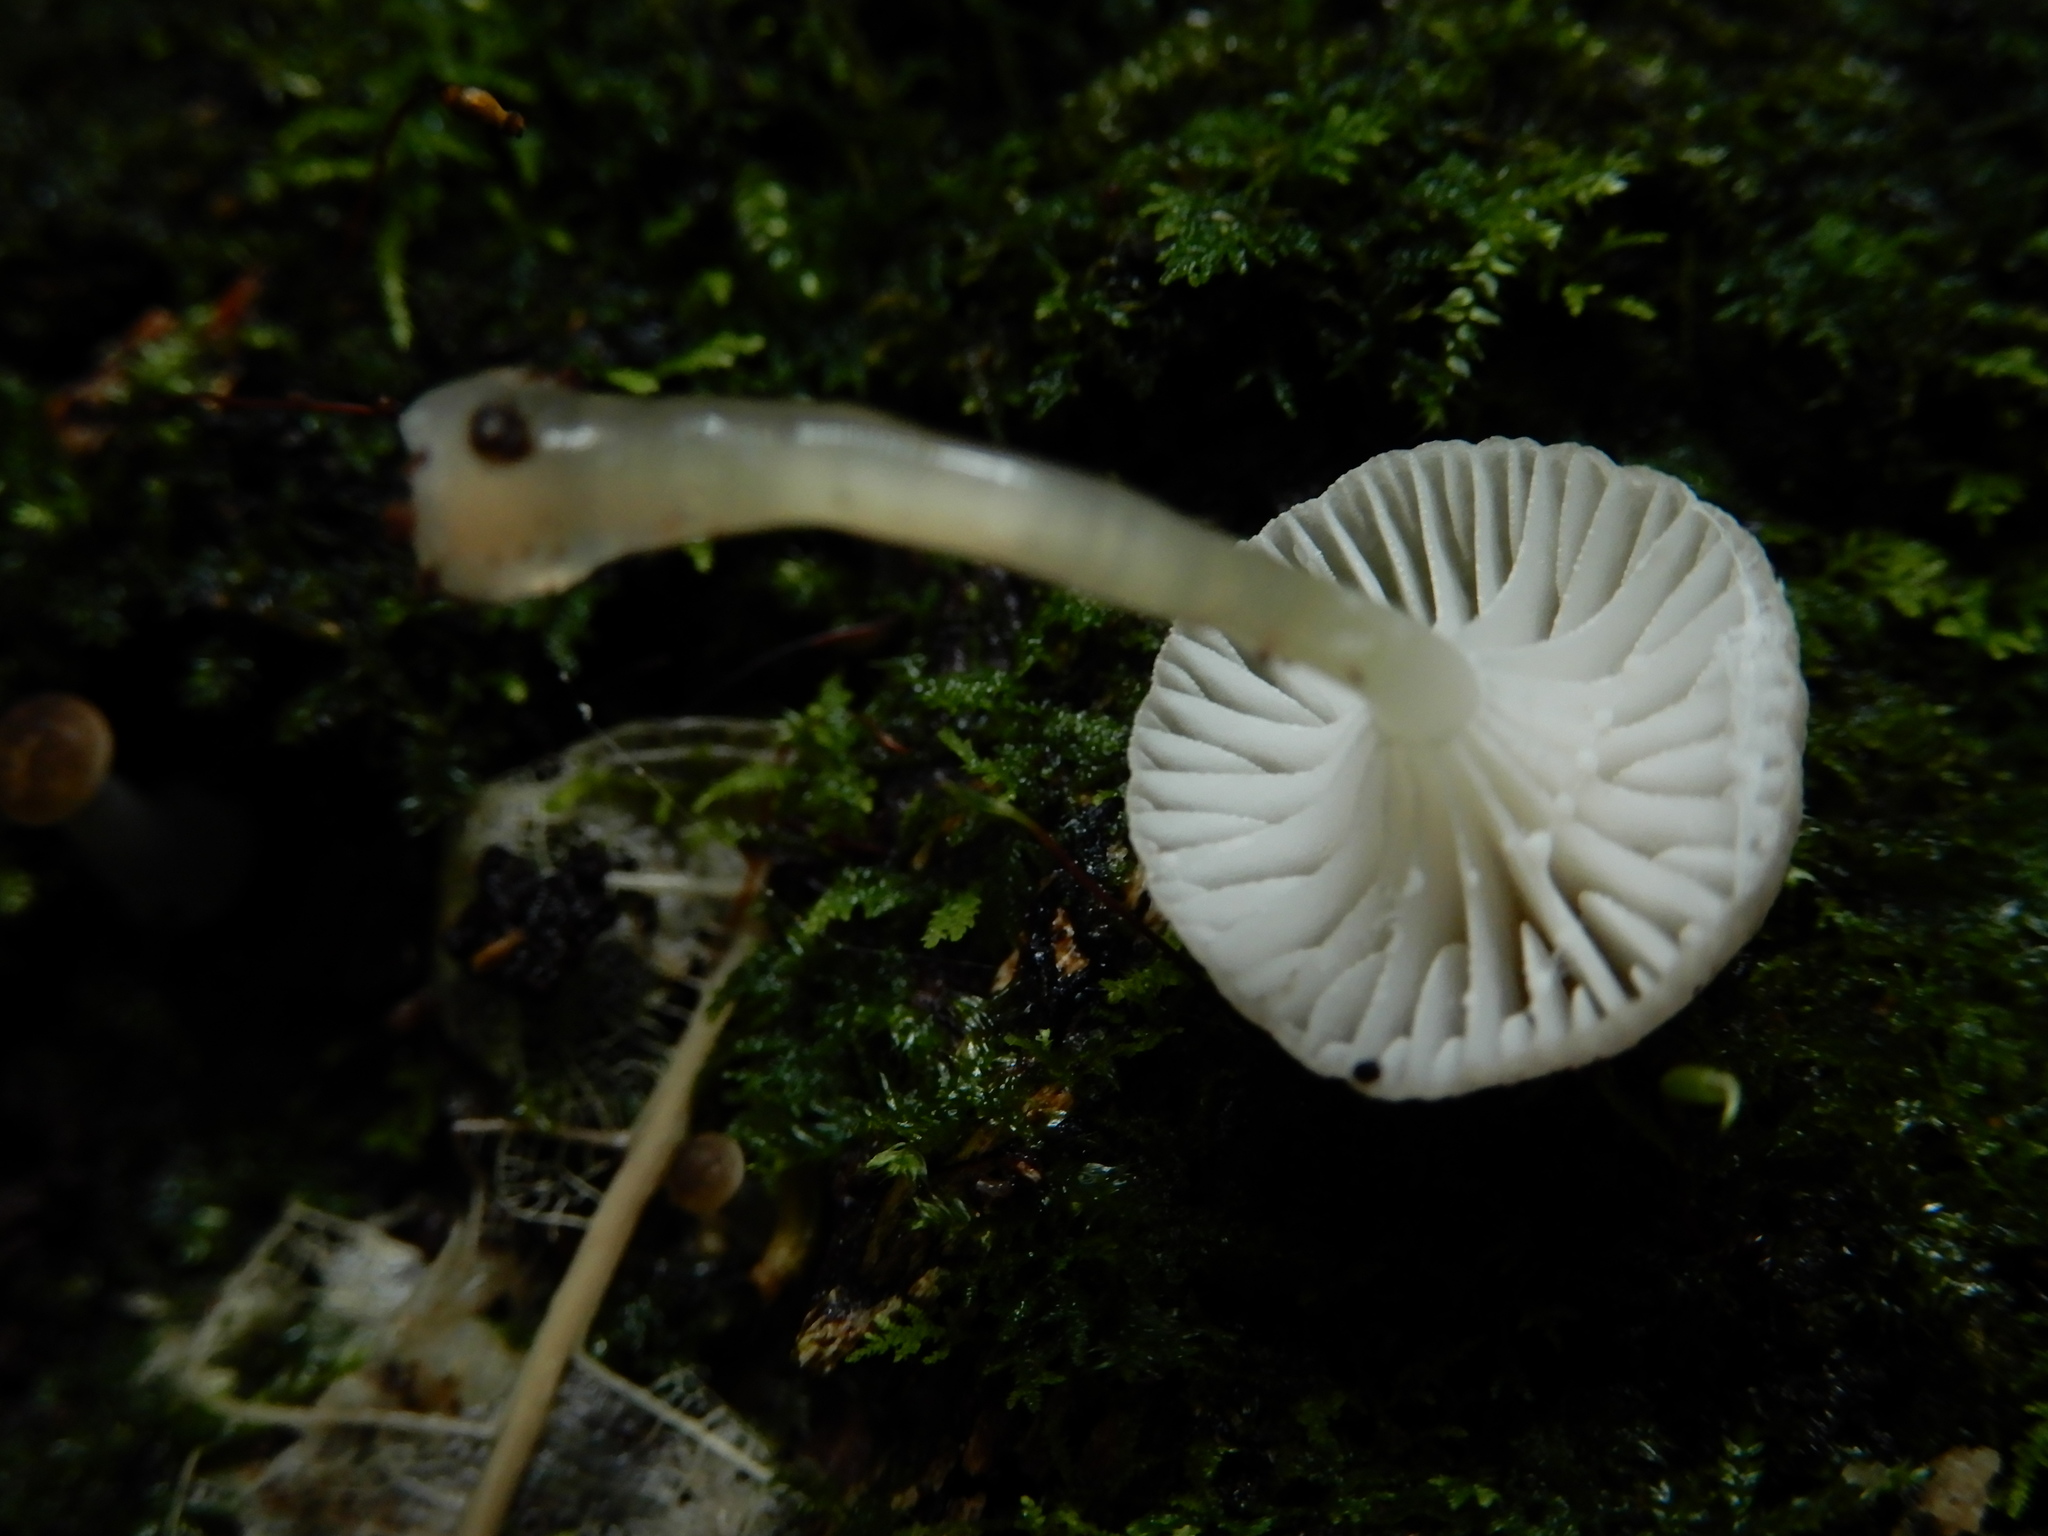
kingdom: Fungi
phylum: Basidiomycota
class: Agaricomycetes
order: Agaricales
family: Mycenaceae
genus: Roridomyces
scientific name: Roridomyces austrororidus
